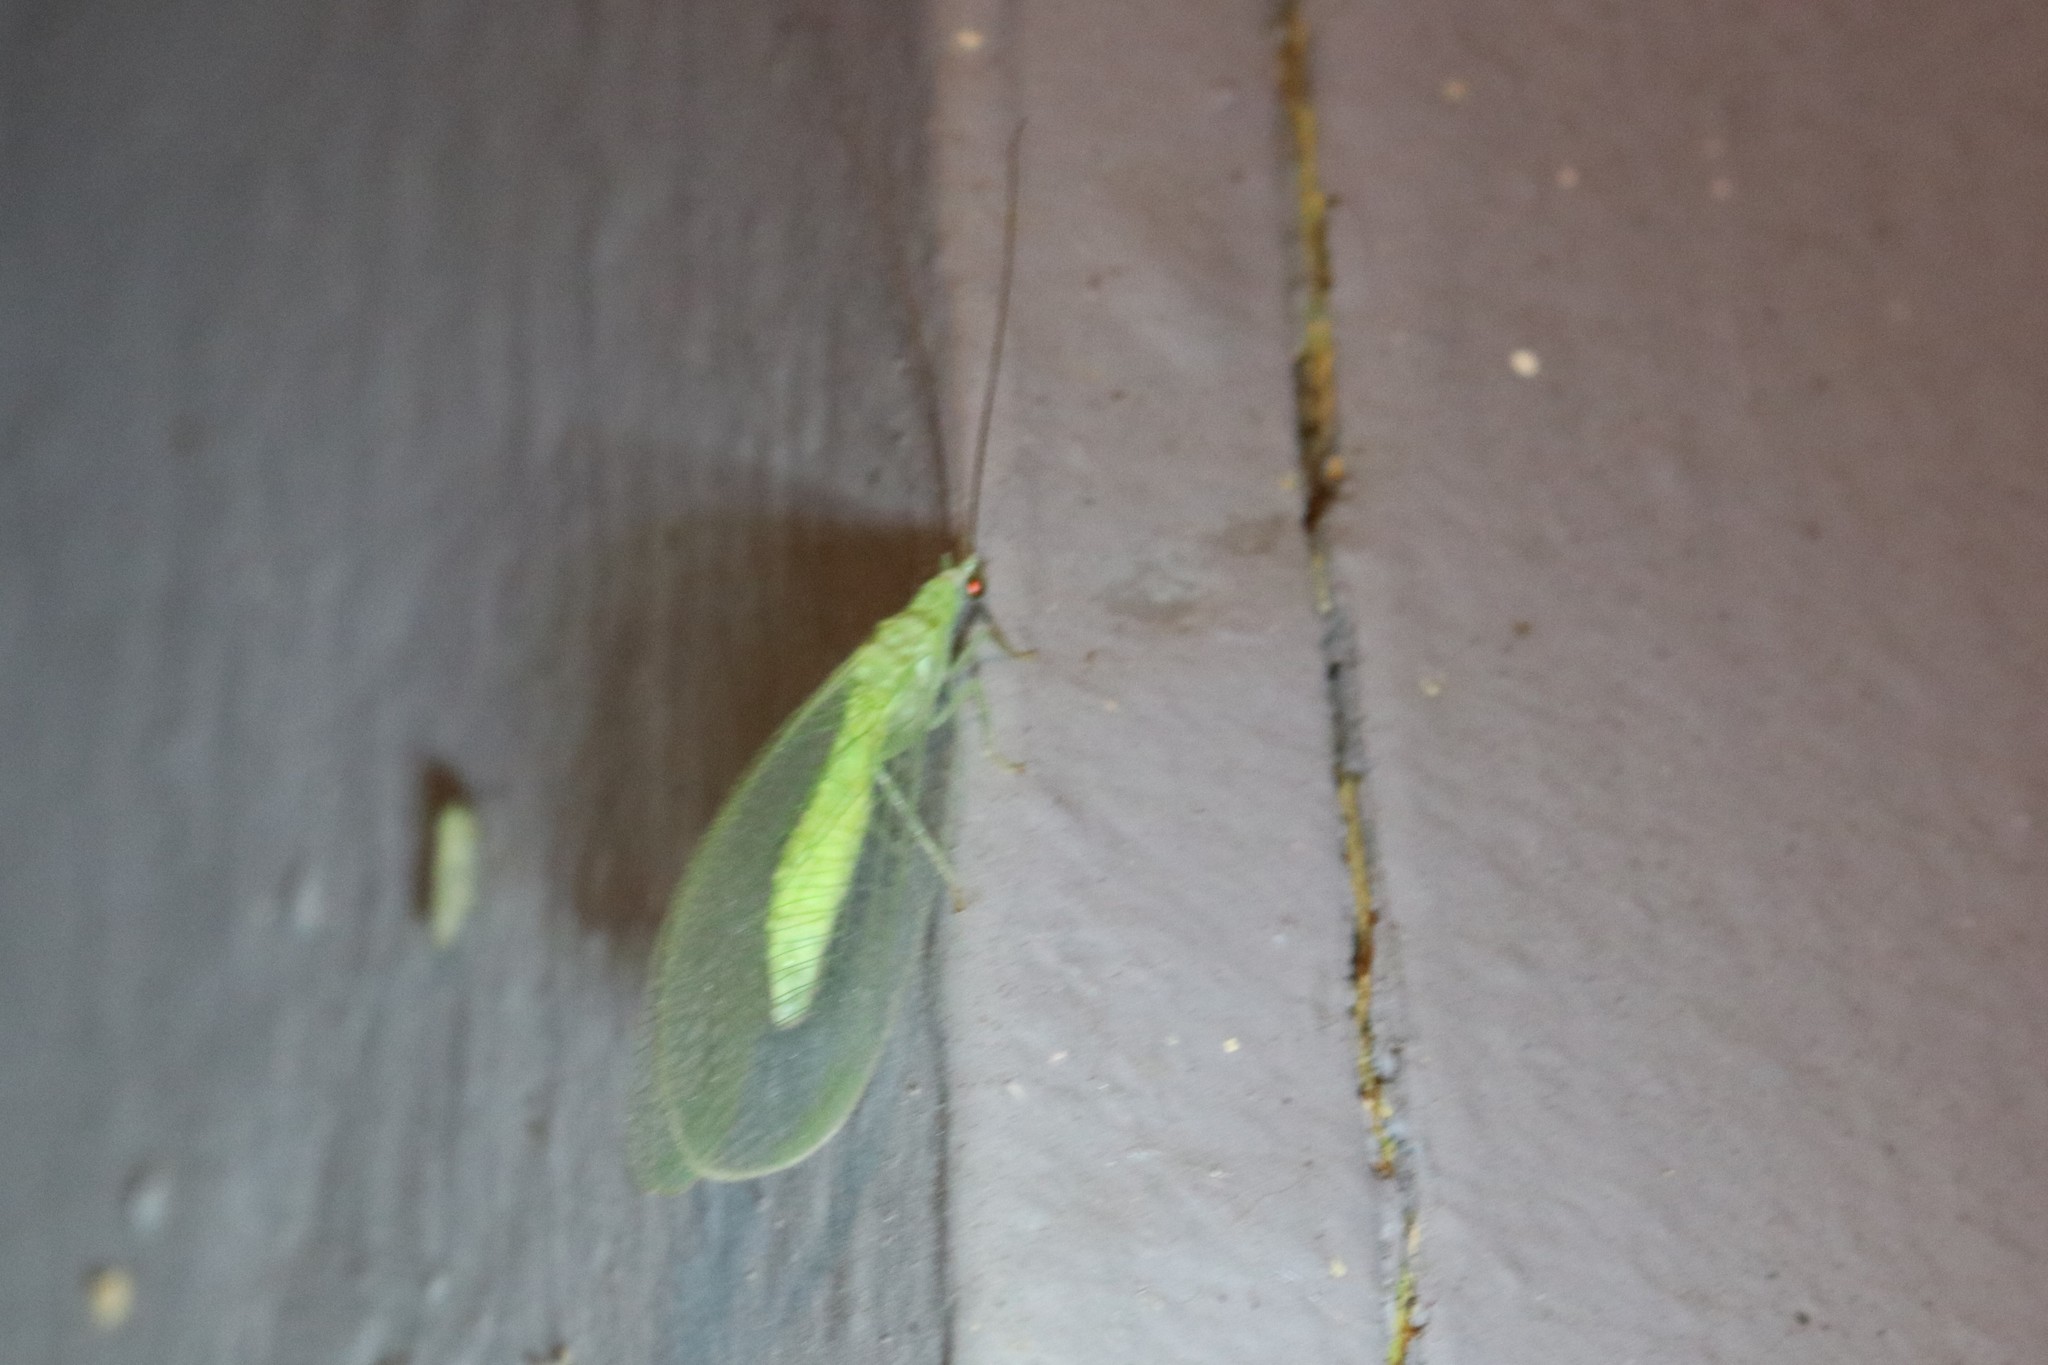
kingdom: Animalia
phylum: Arthropoda
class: Insecta
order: Neuroptera
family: Chrysopidae
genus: Chrysopa
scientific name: Chrysopa nigricornis
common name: Black-horned green lacewing
